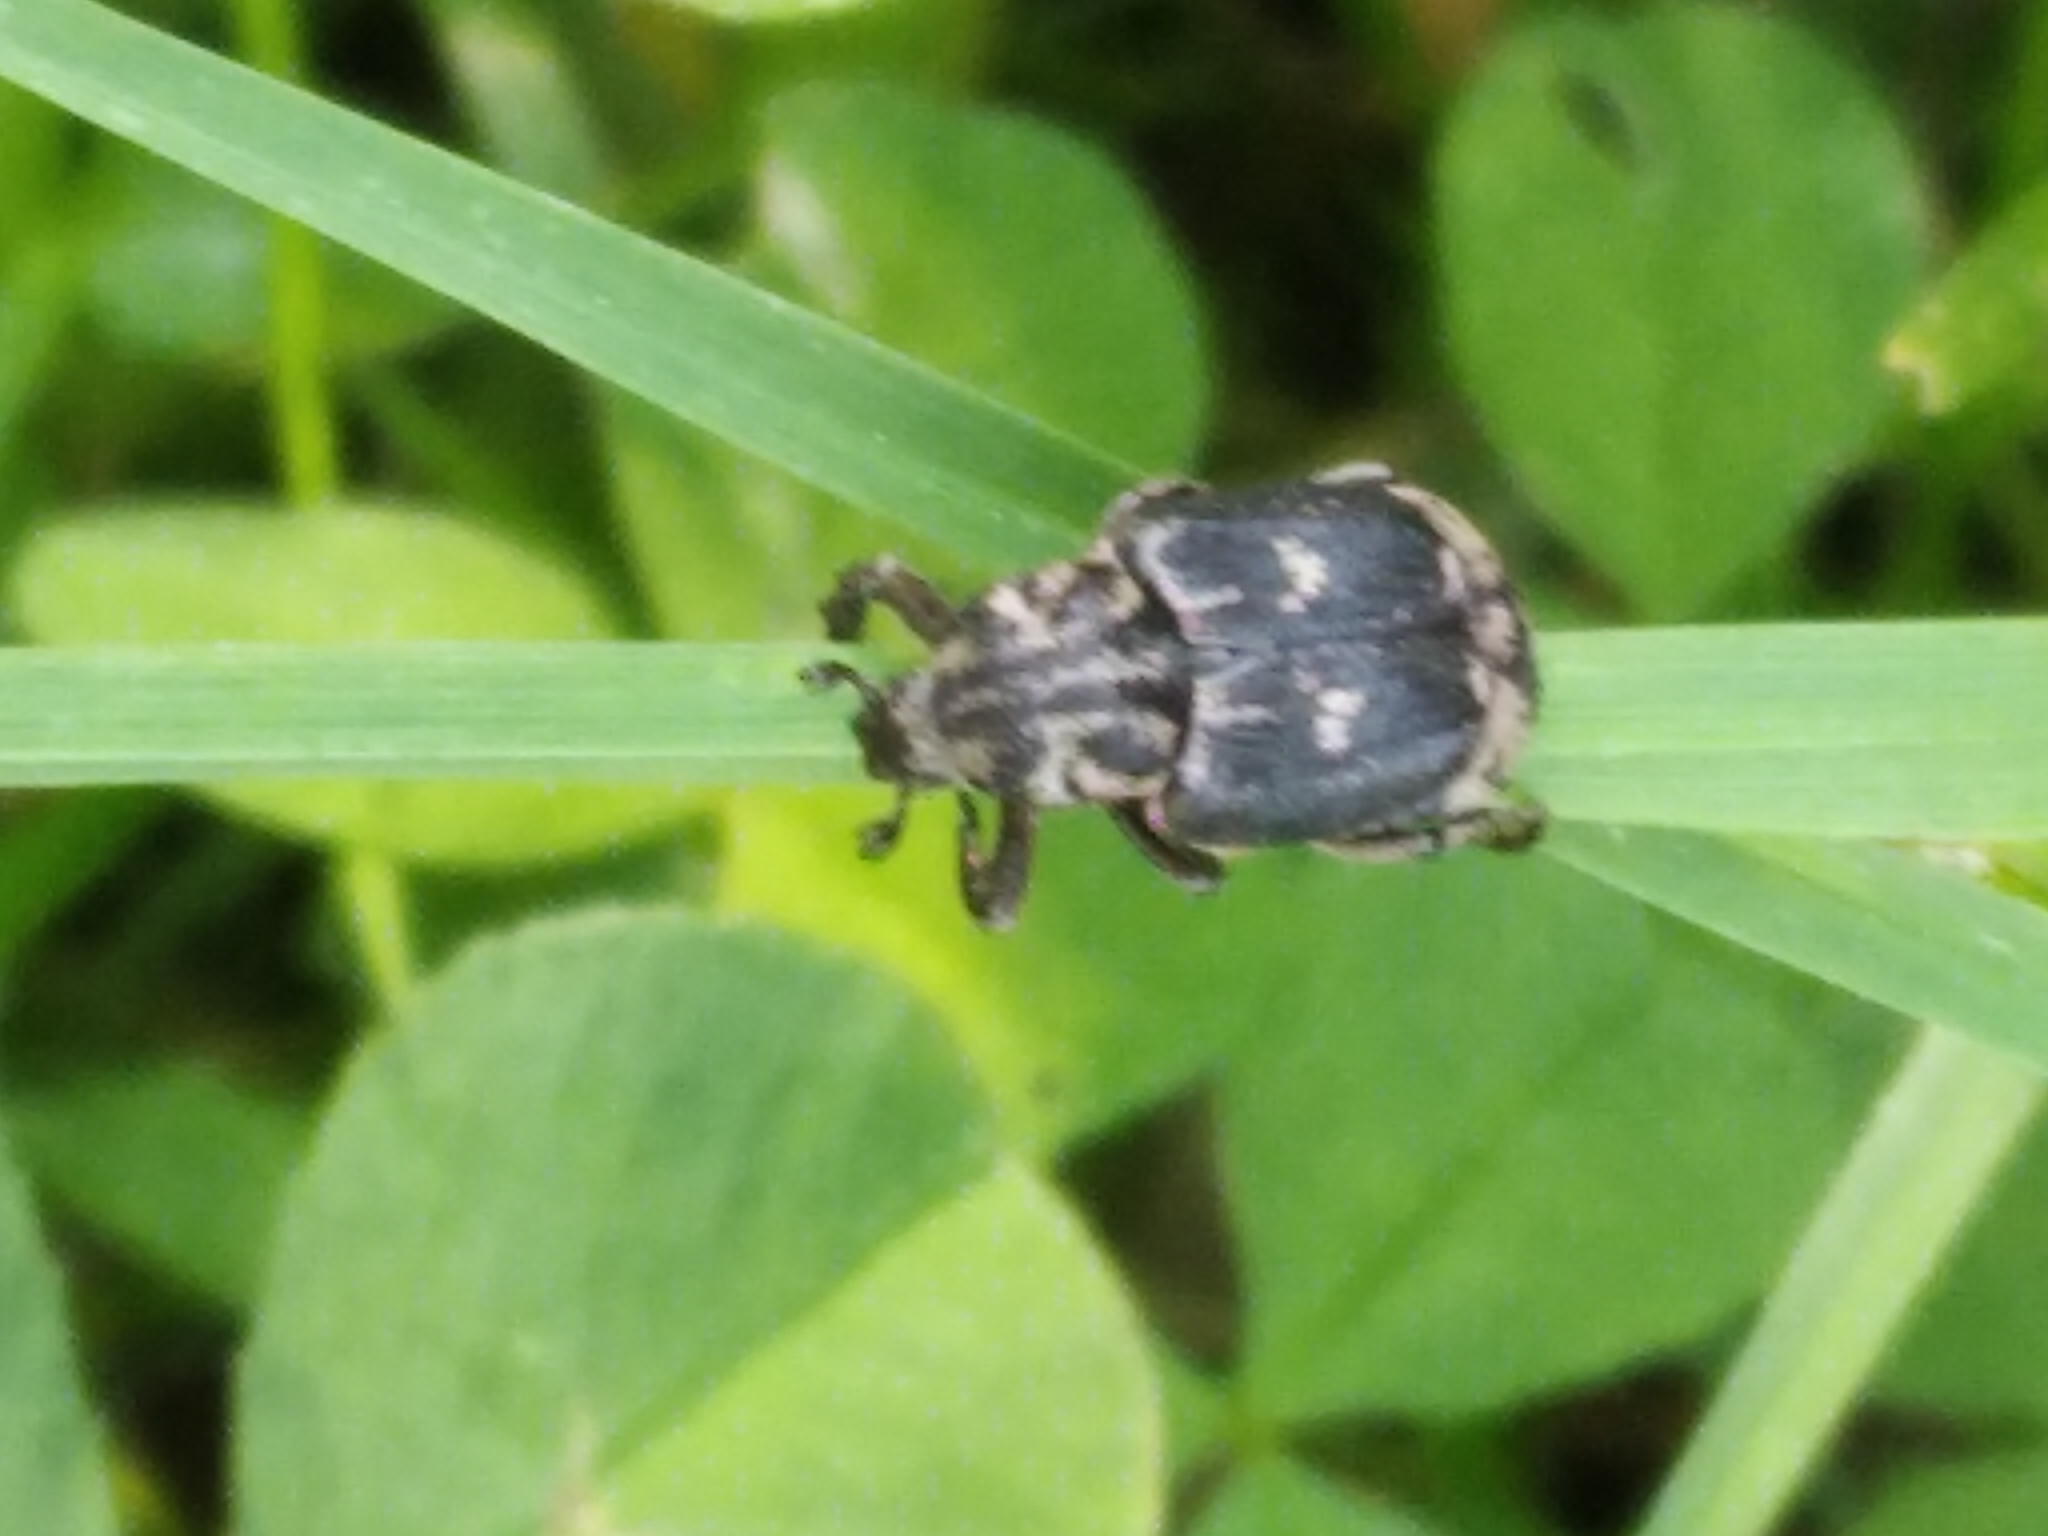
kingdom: Animalia
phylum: Arthropoda
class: Insecta
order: Coleoptera
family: Scarabaeidae
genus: Valgus
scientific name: Valgus hemipterus
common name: Bug flower chafer
